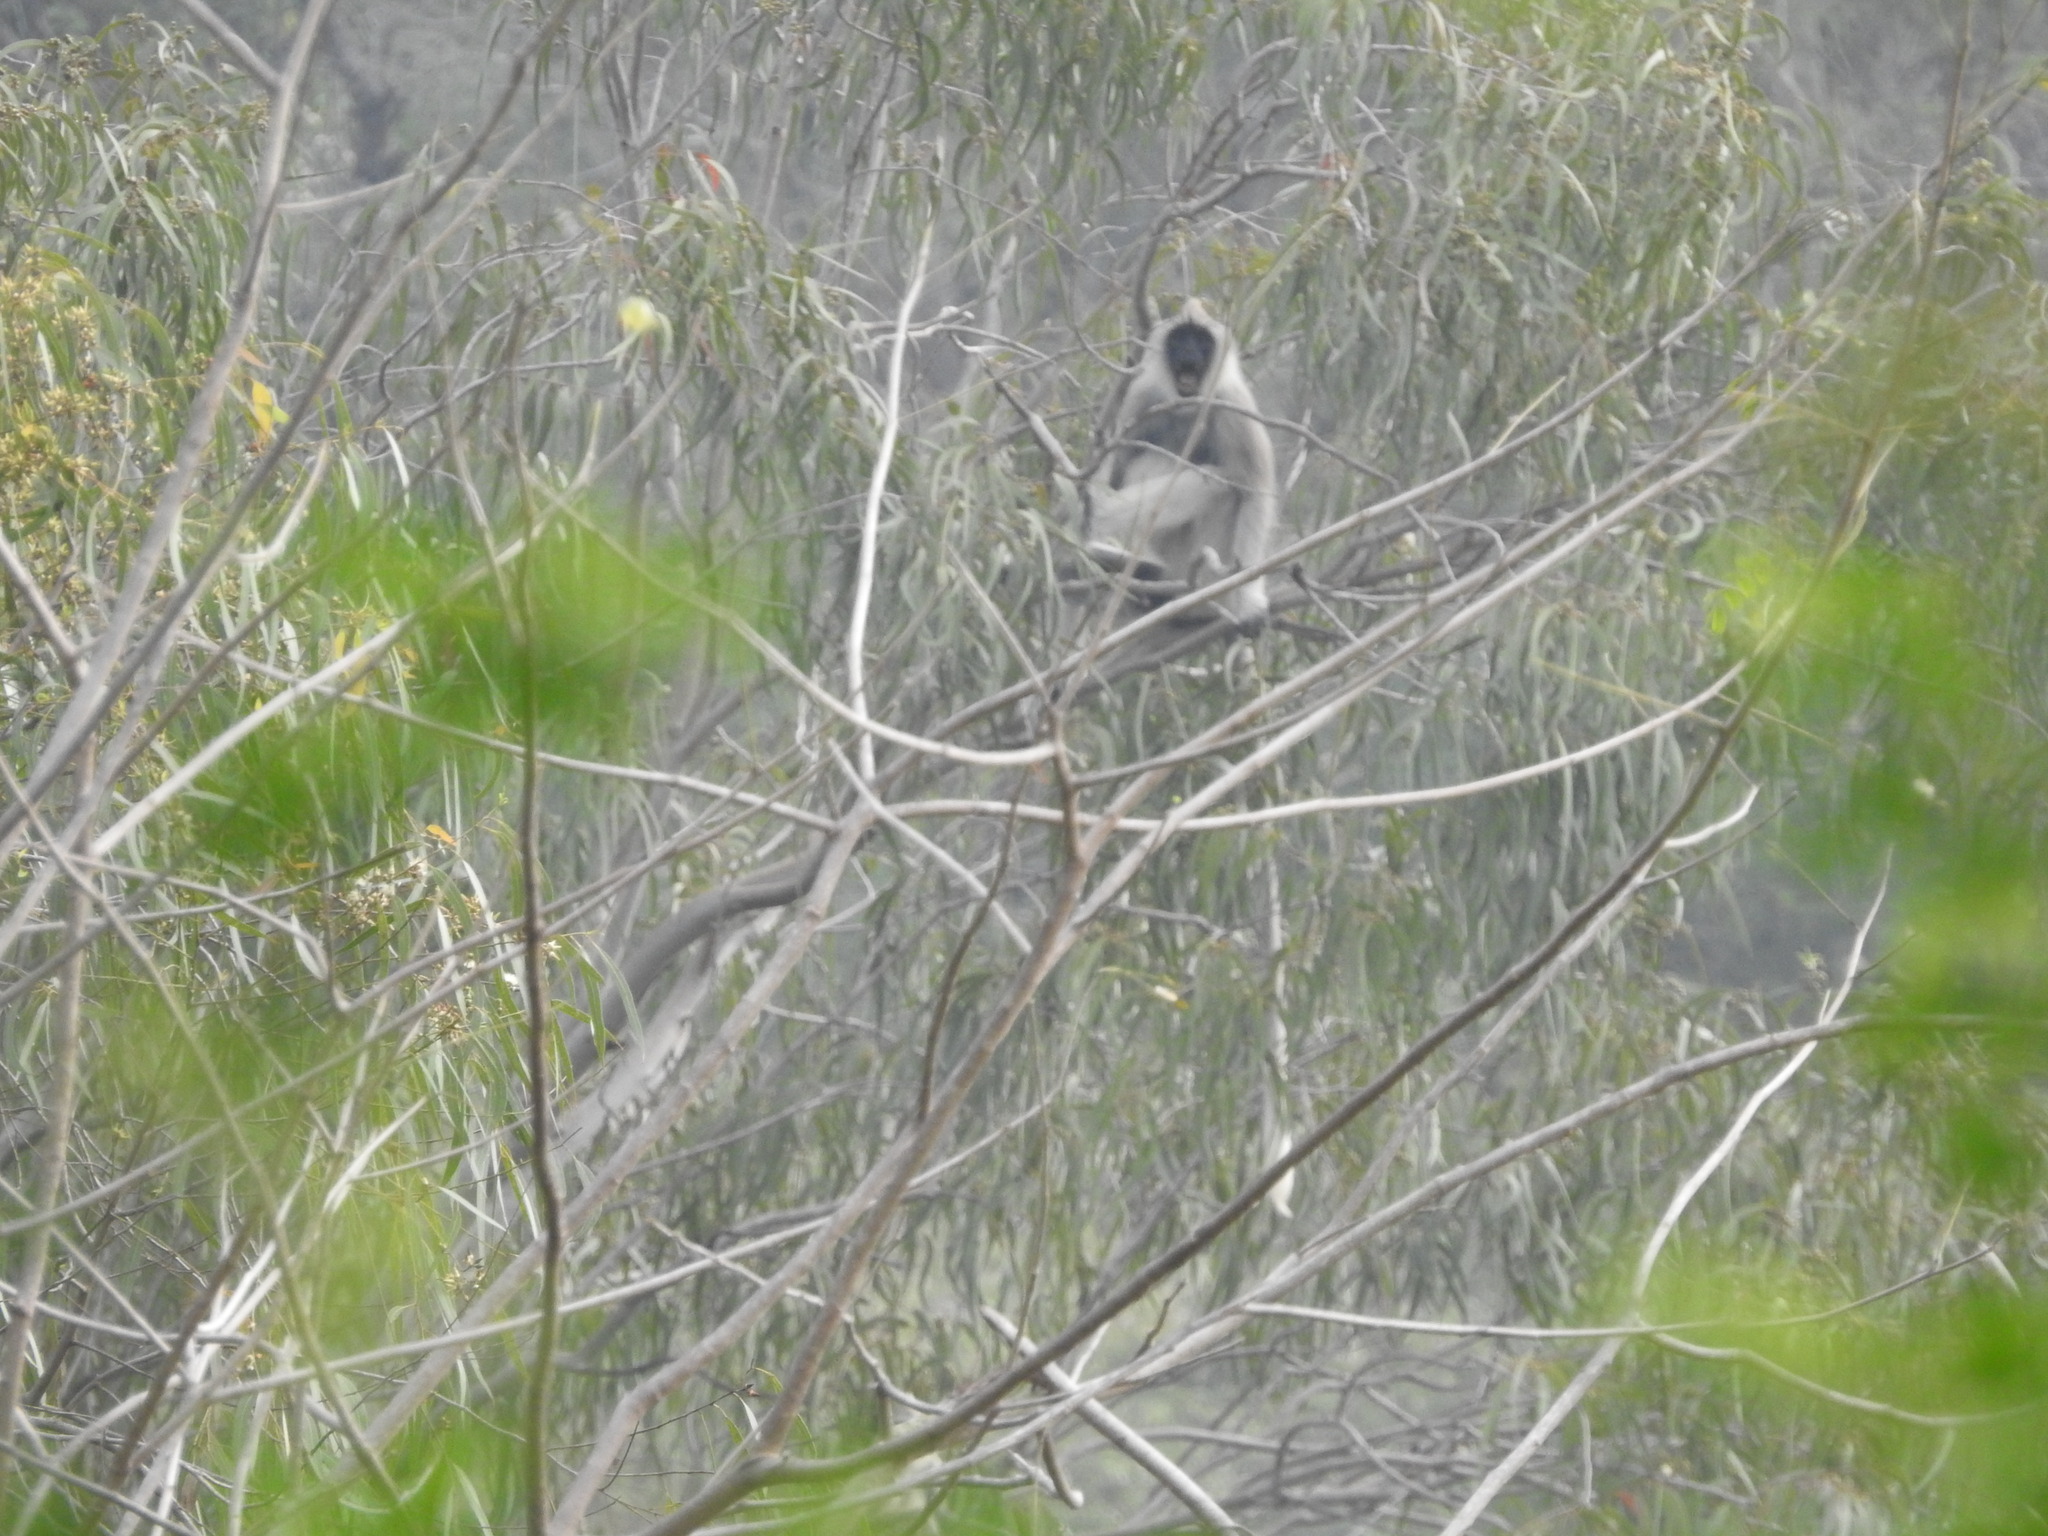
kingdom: Animalia
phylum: Chordata
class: Mammalia
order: Primates
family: Cercopithecidae
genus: Semnopithecus
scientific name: Semnopithecus priam
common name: Tufted gray langur
